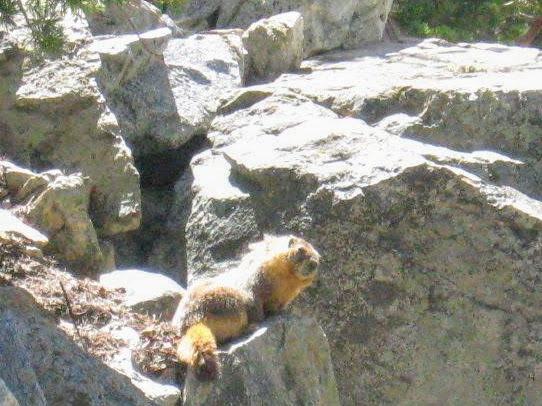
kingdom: Animalia
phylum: Chordata
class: Mammalia
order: Rodentia
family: Sciuridae
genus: Marmota
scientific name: Marmota flaviventris
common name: Yellow-bellied marmot
